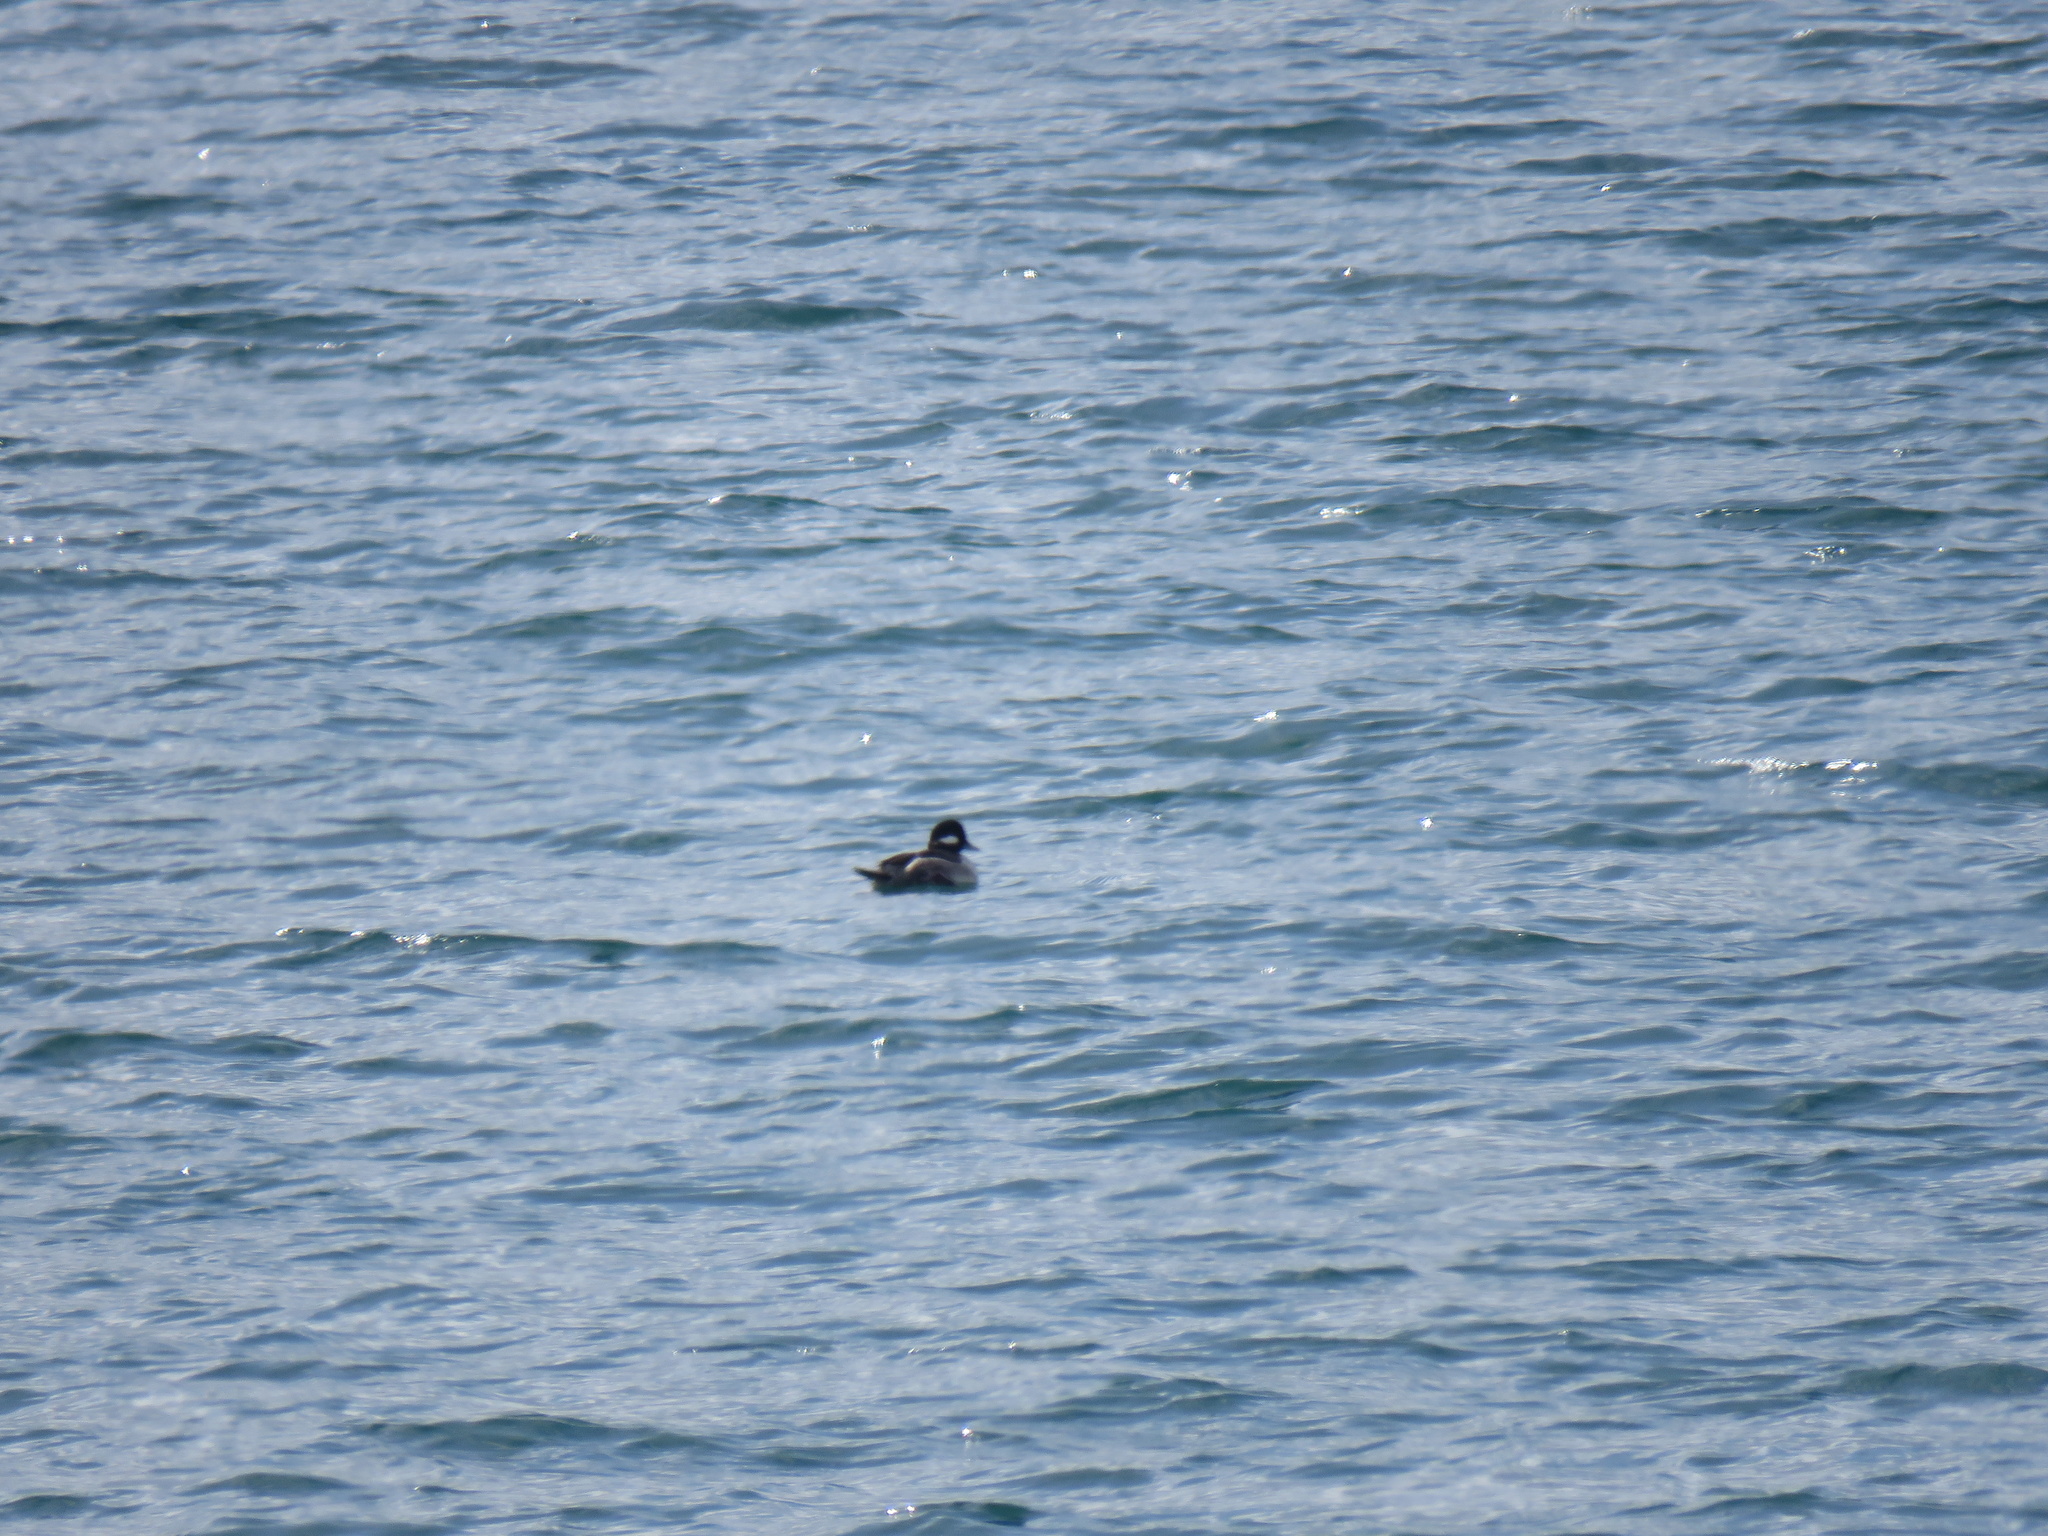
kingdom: Animalia
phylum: Chordata
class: Aves
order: Anseriformes
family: Anatidae
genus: Bucephala
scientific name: Bucephala albeola
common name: Bufflehead
